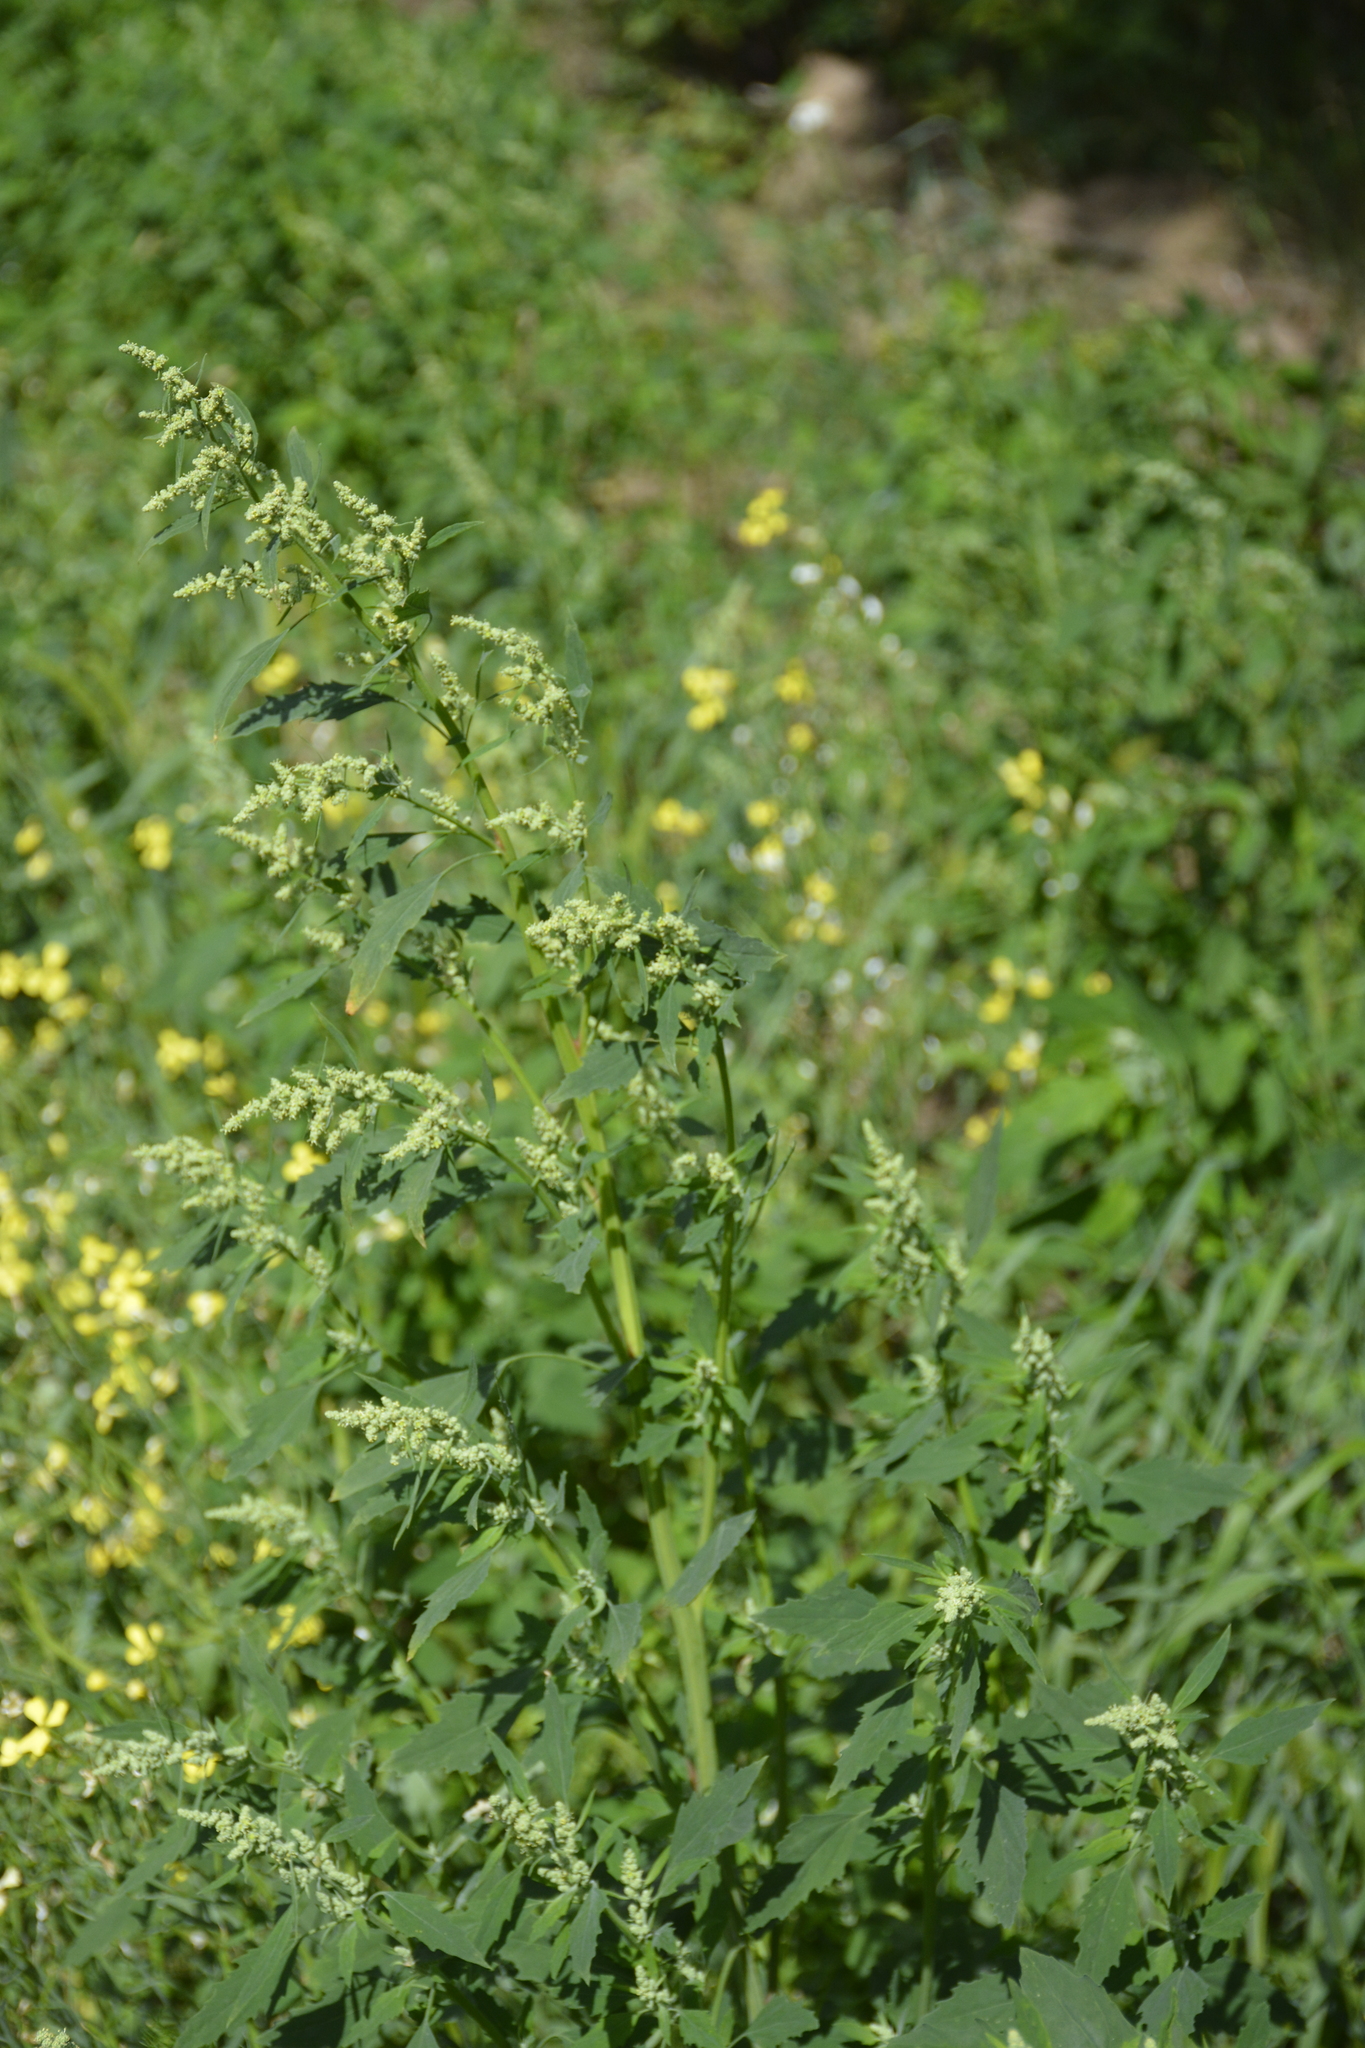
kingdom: Plantae
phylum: Tracheophyta
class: Magnoliopsida
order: Caryophyllales
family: Amaranthaceae
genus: Chenopodium
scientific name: Chenopodium album
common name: Fat-hen
